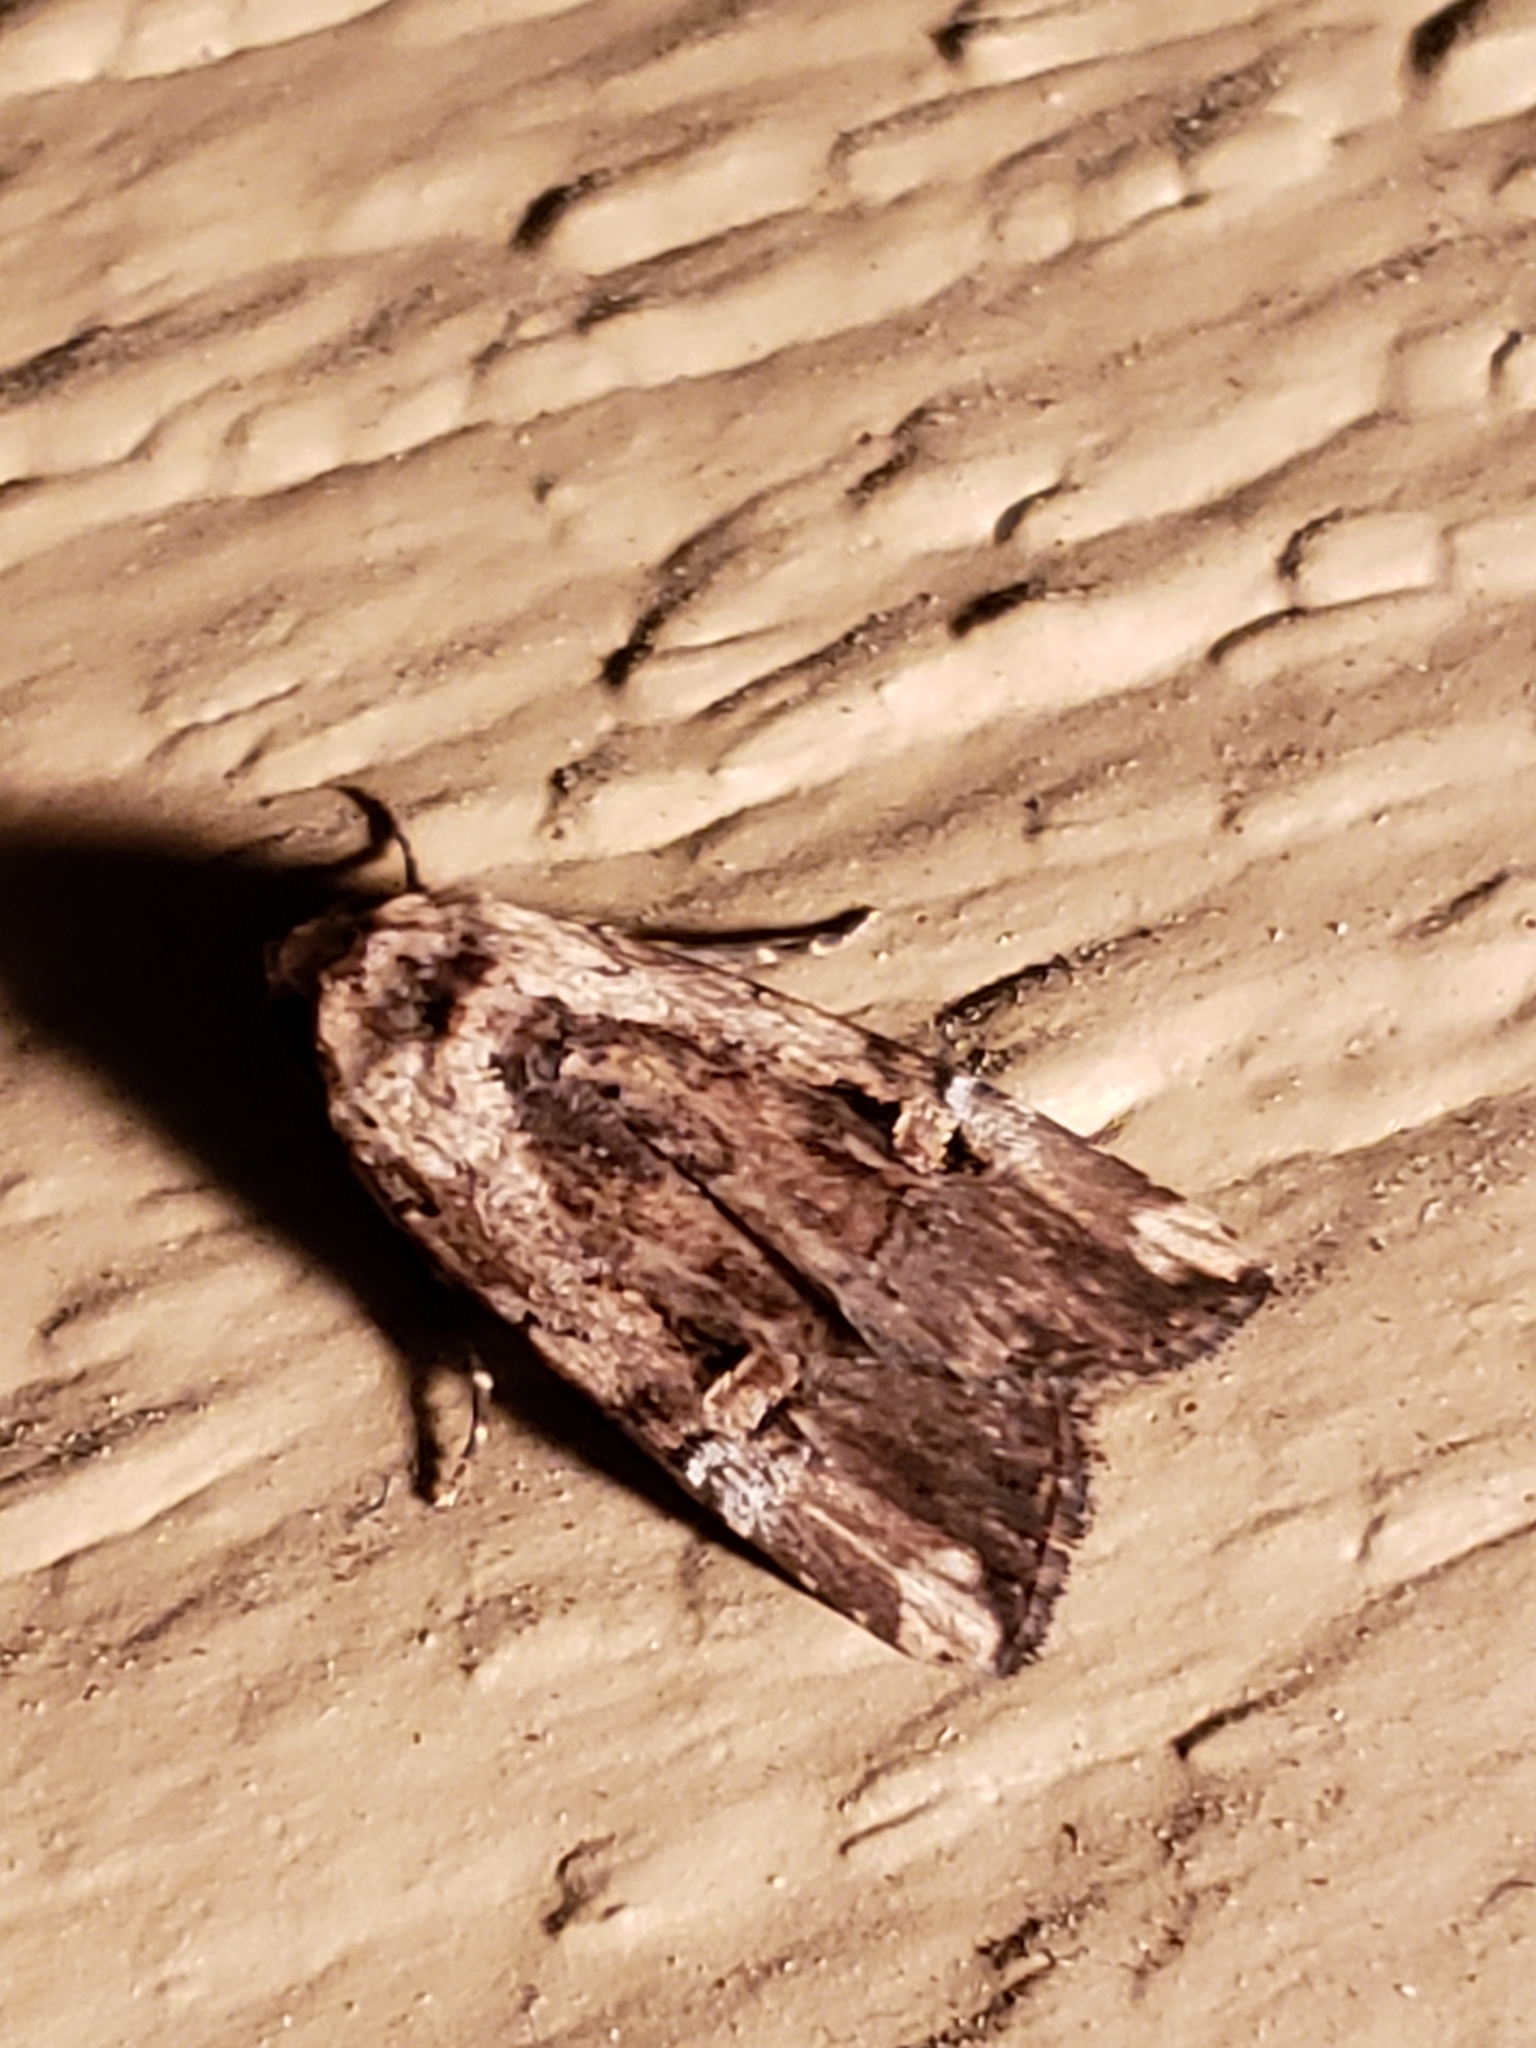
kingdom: Animalia
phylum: Arthropoda
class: Insecta
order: Lepidoptera
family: Noctuidae
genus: Elaphria
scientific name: Elaphria chalcedonia
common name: Chalcedony midget
